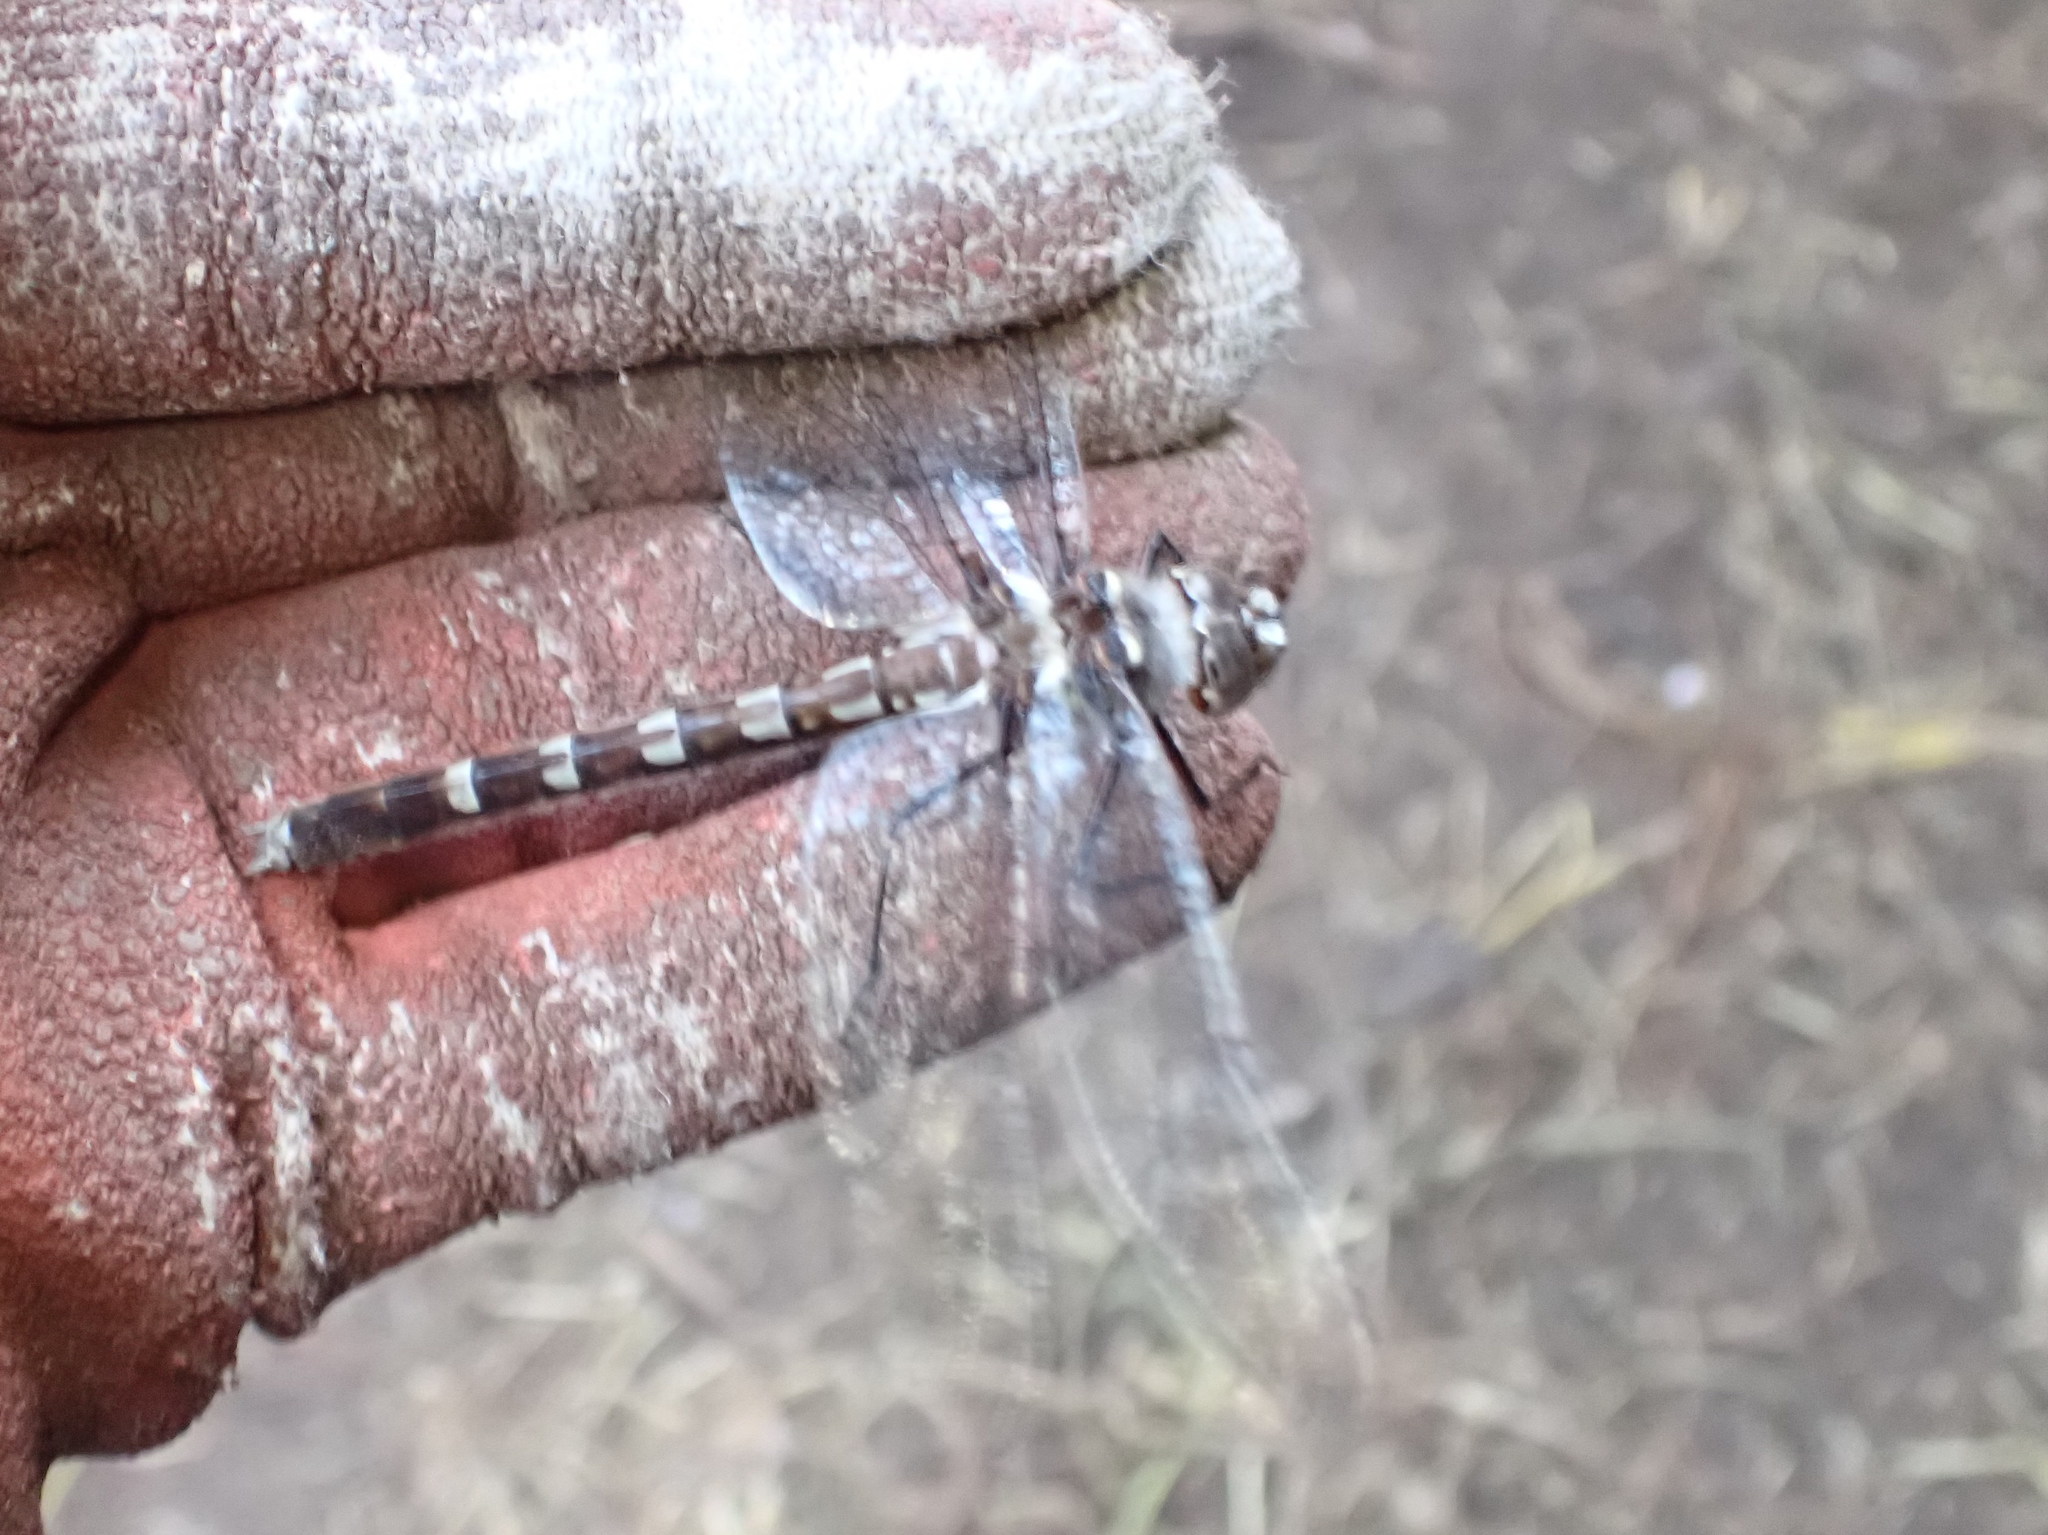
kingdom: Animalia
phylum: Arthropoda
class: Insecta
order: Odonata
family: Macromiidae
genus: Didymops
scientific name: Didymops transversa
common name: Stream cruiser
